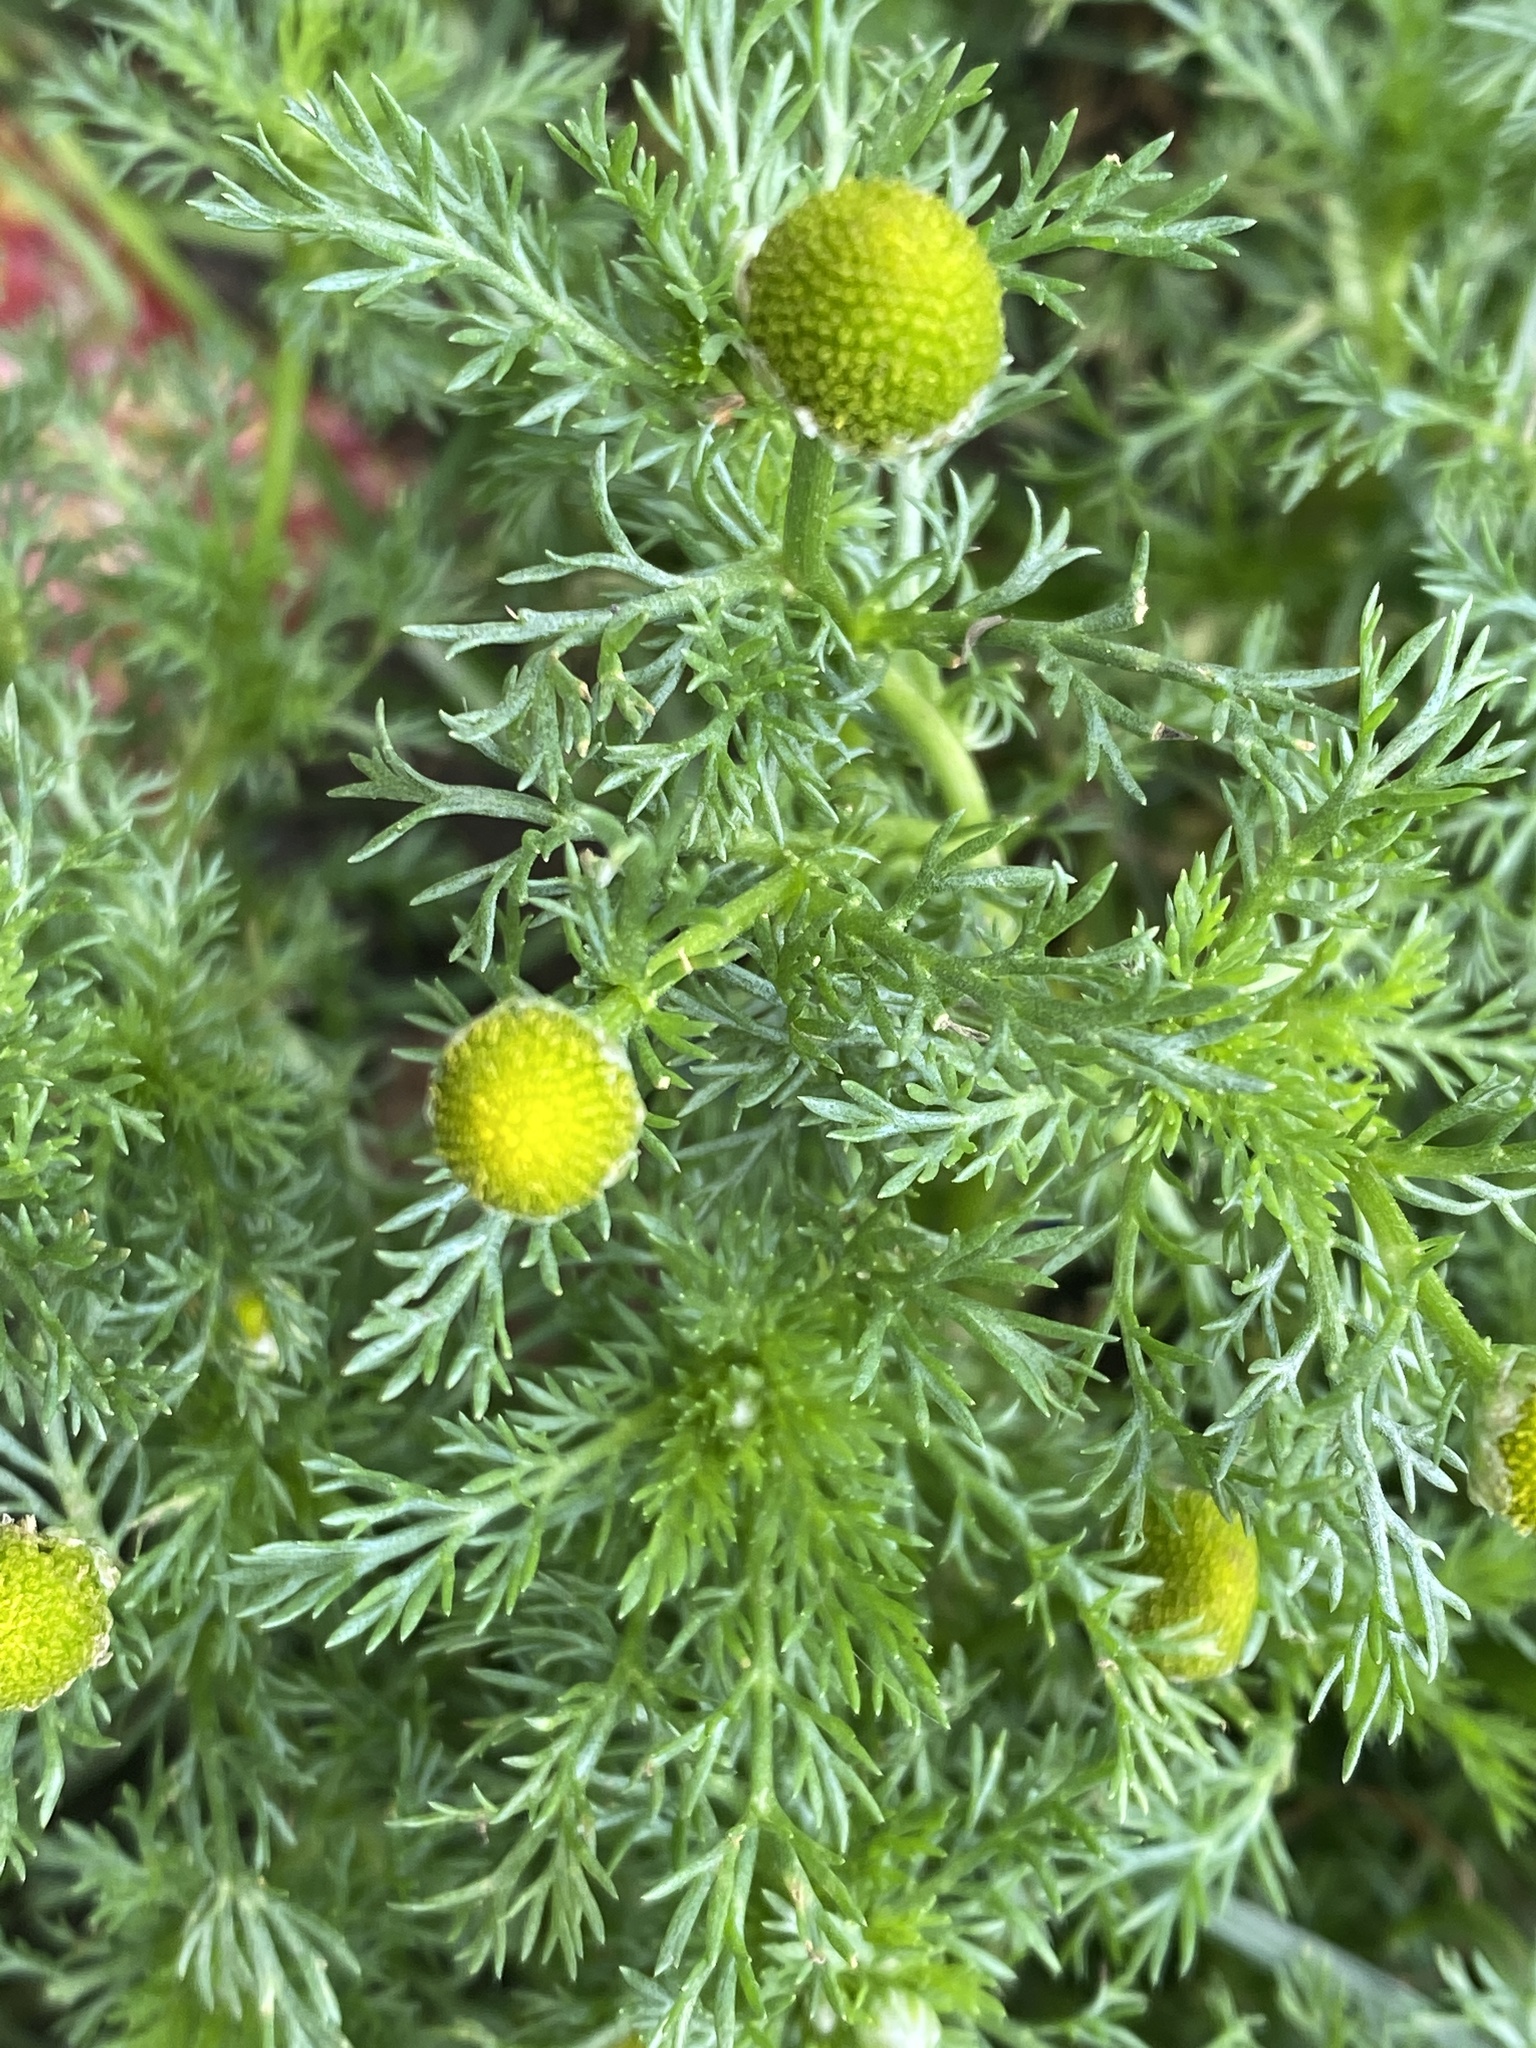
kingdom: Plantae
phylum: Tracheophyta
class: Magnoliopsida
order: Asterales
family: Asteraceae
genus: Matricaria
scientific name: Matricaria discoidea
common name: Disc mayweed
